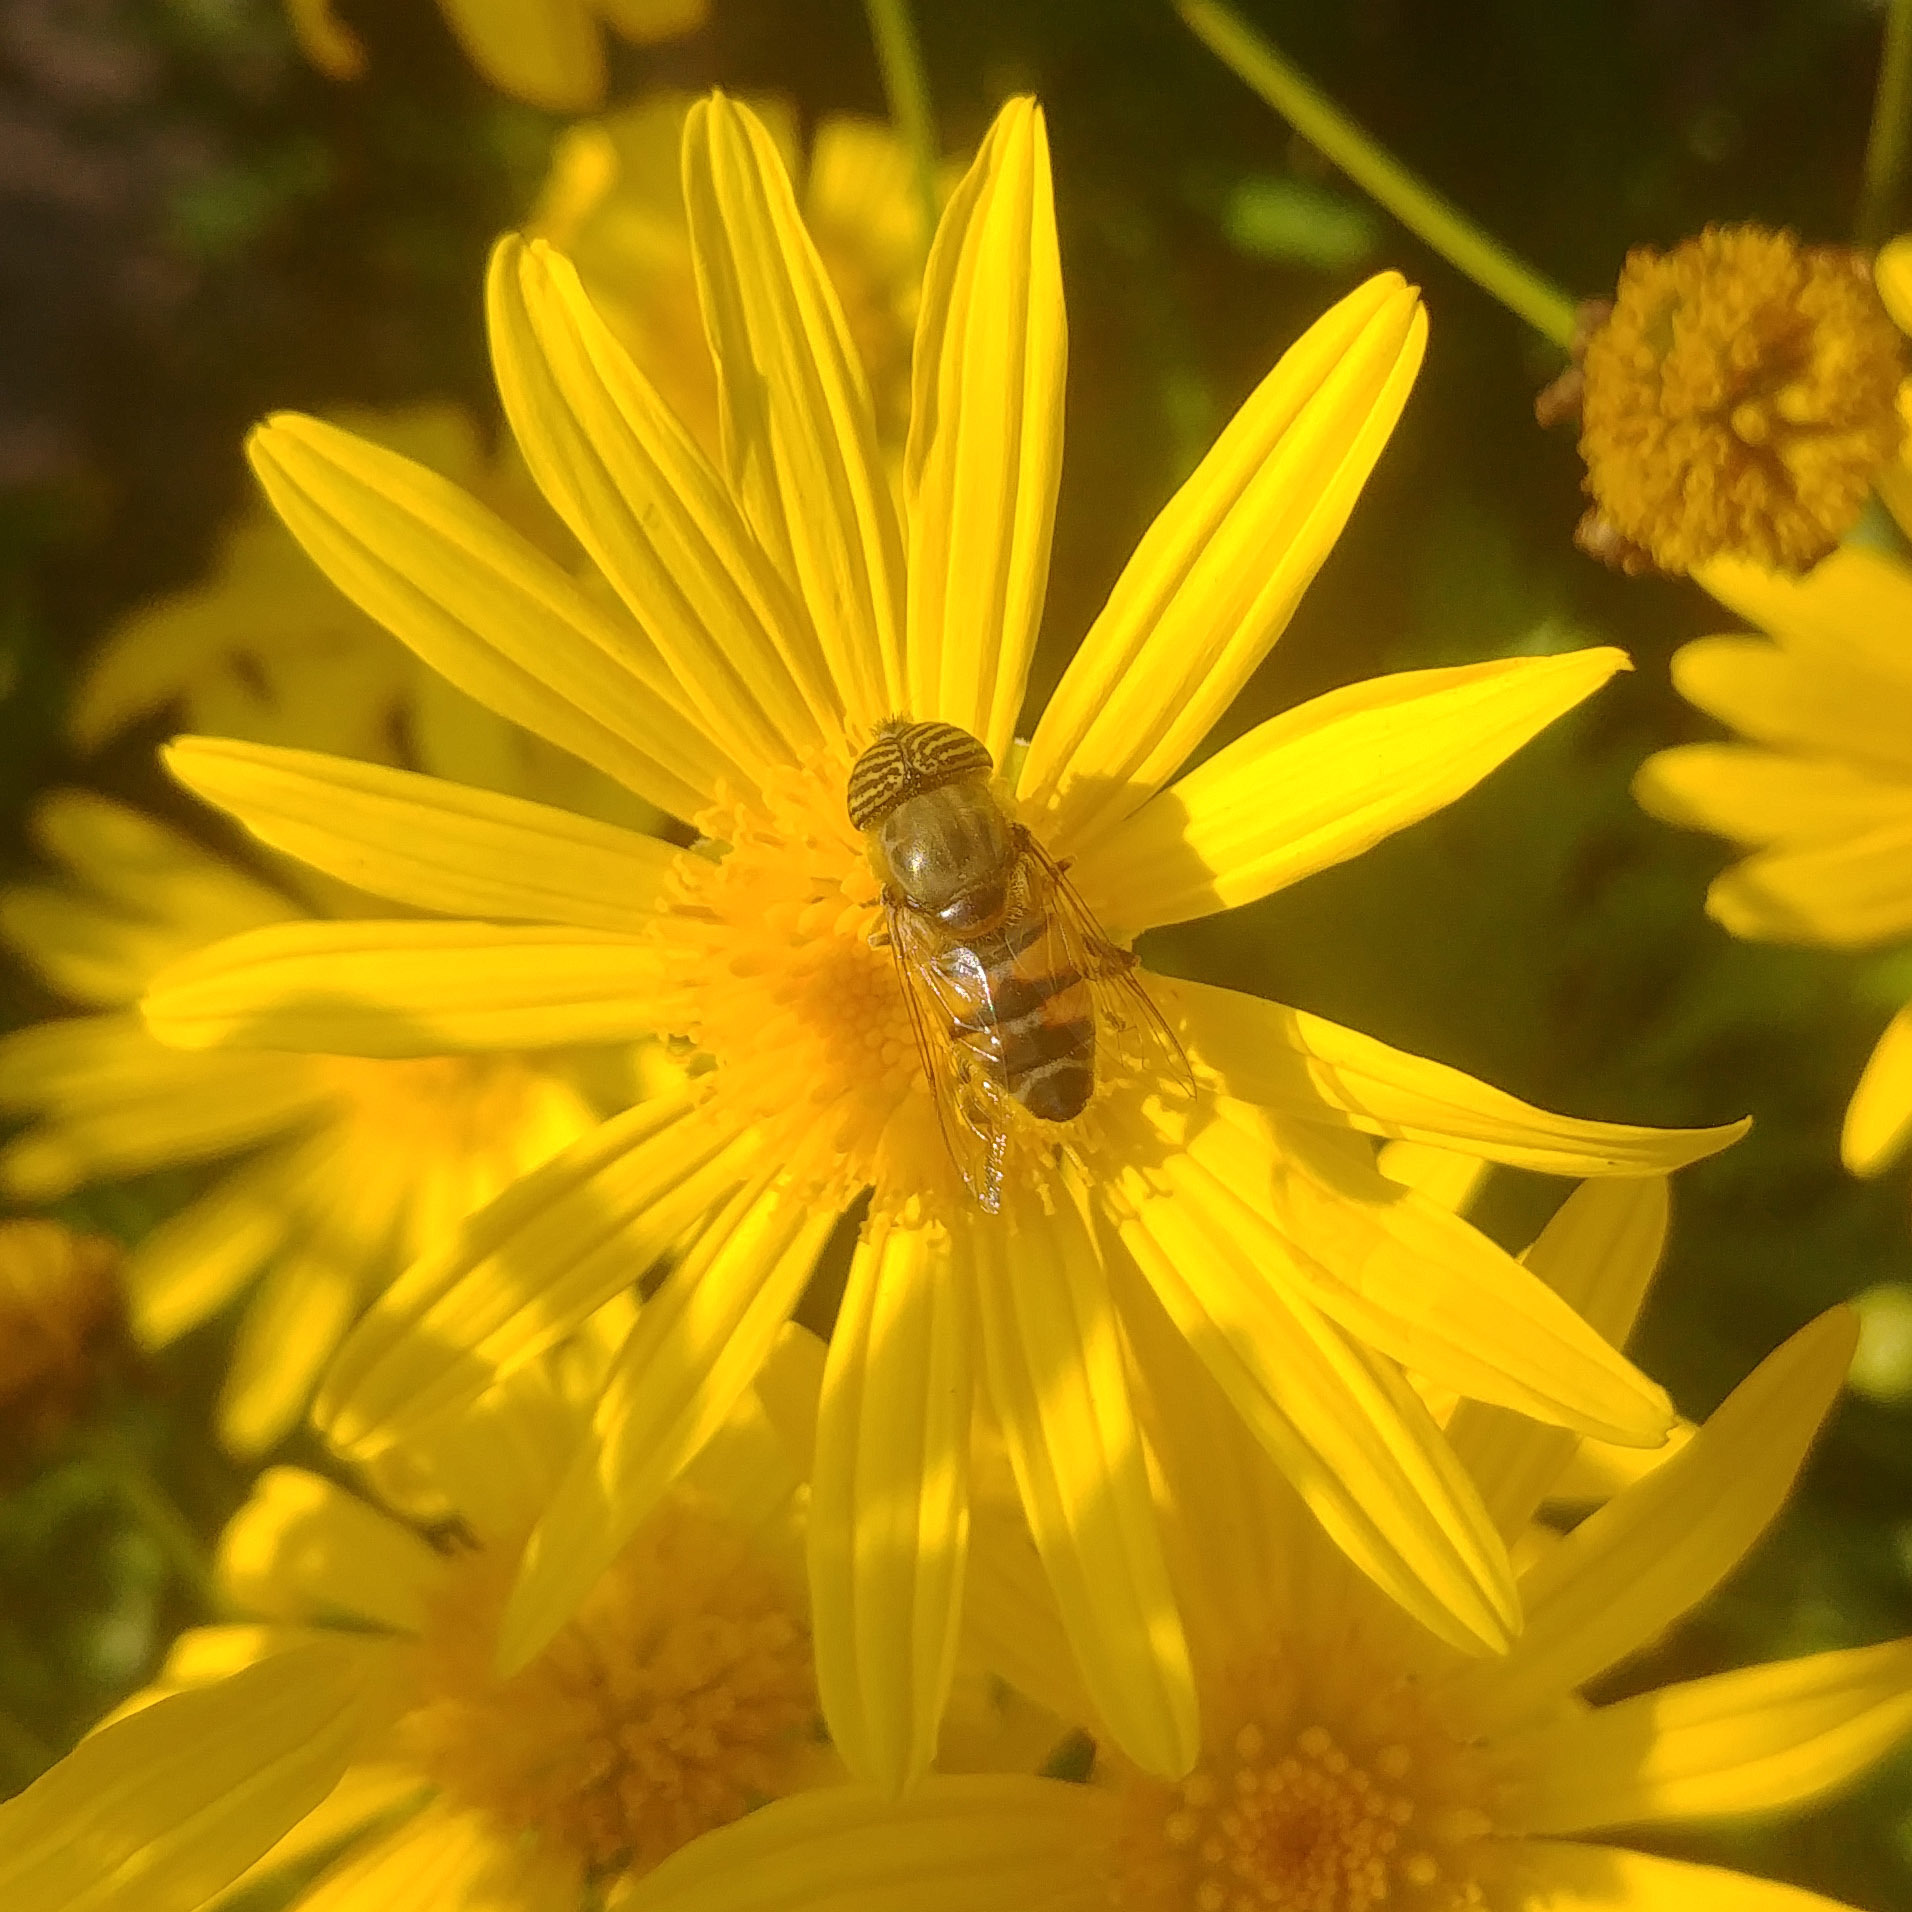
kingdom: Animalia
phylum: Arthropoda
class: Insecta
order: Diptera
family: Syrphidae
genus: Eristalinus
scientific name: Eristalinus taeniops
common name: Syrphid fly
